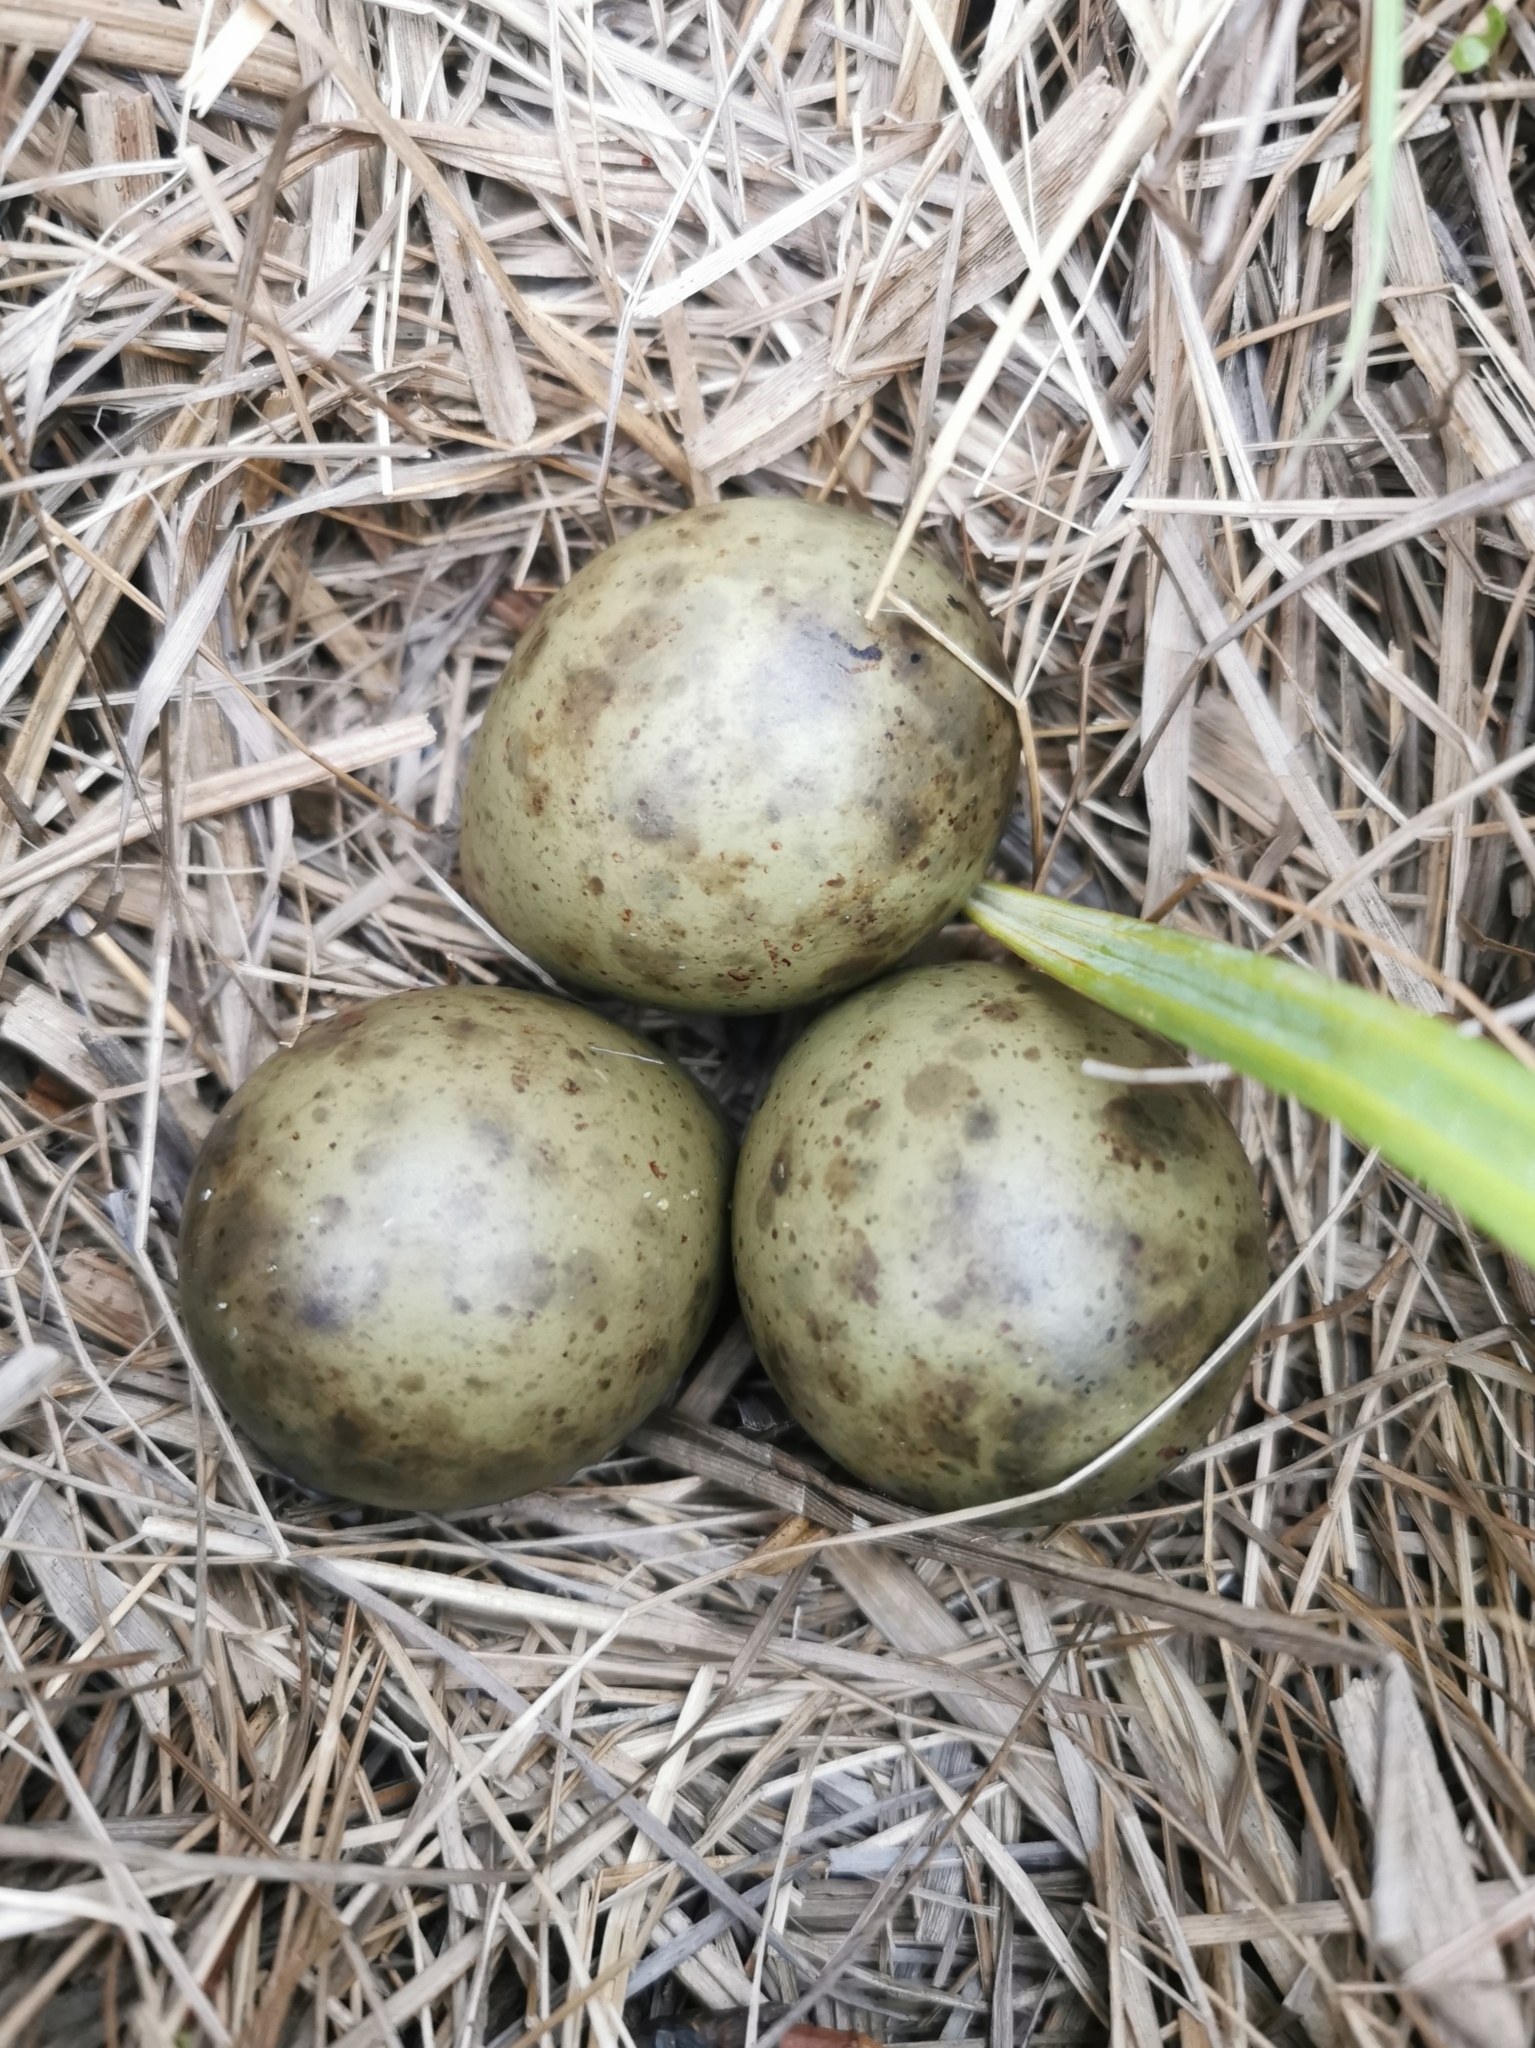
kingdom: Animalia
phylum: Chordata
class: Aves
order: Charadriiformes
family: Scolopacidae
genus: Limosa
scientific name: Limosa limosa
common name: Black-tailed godwit
